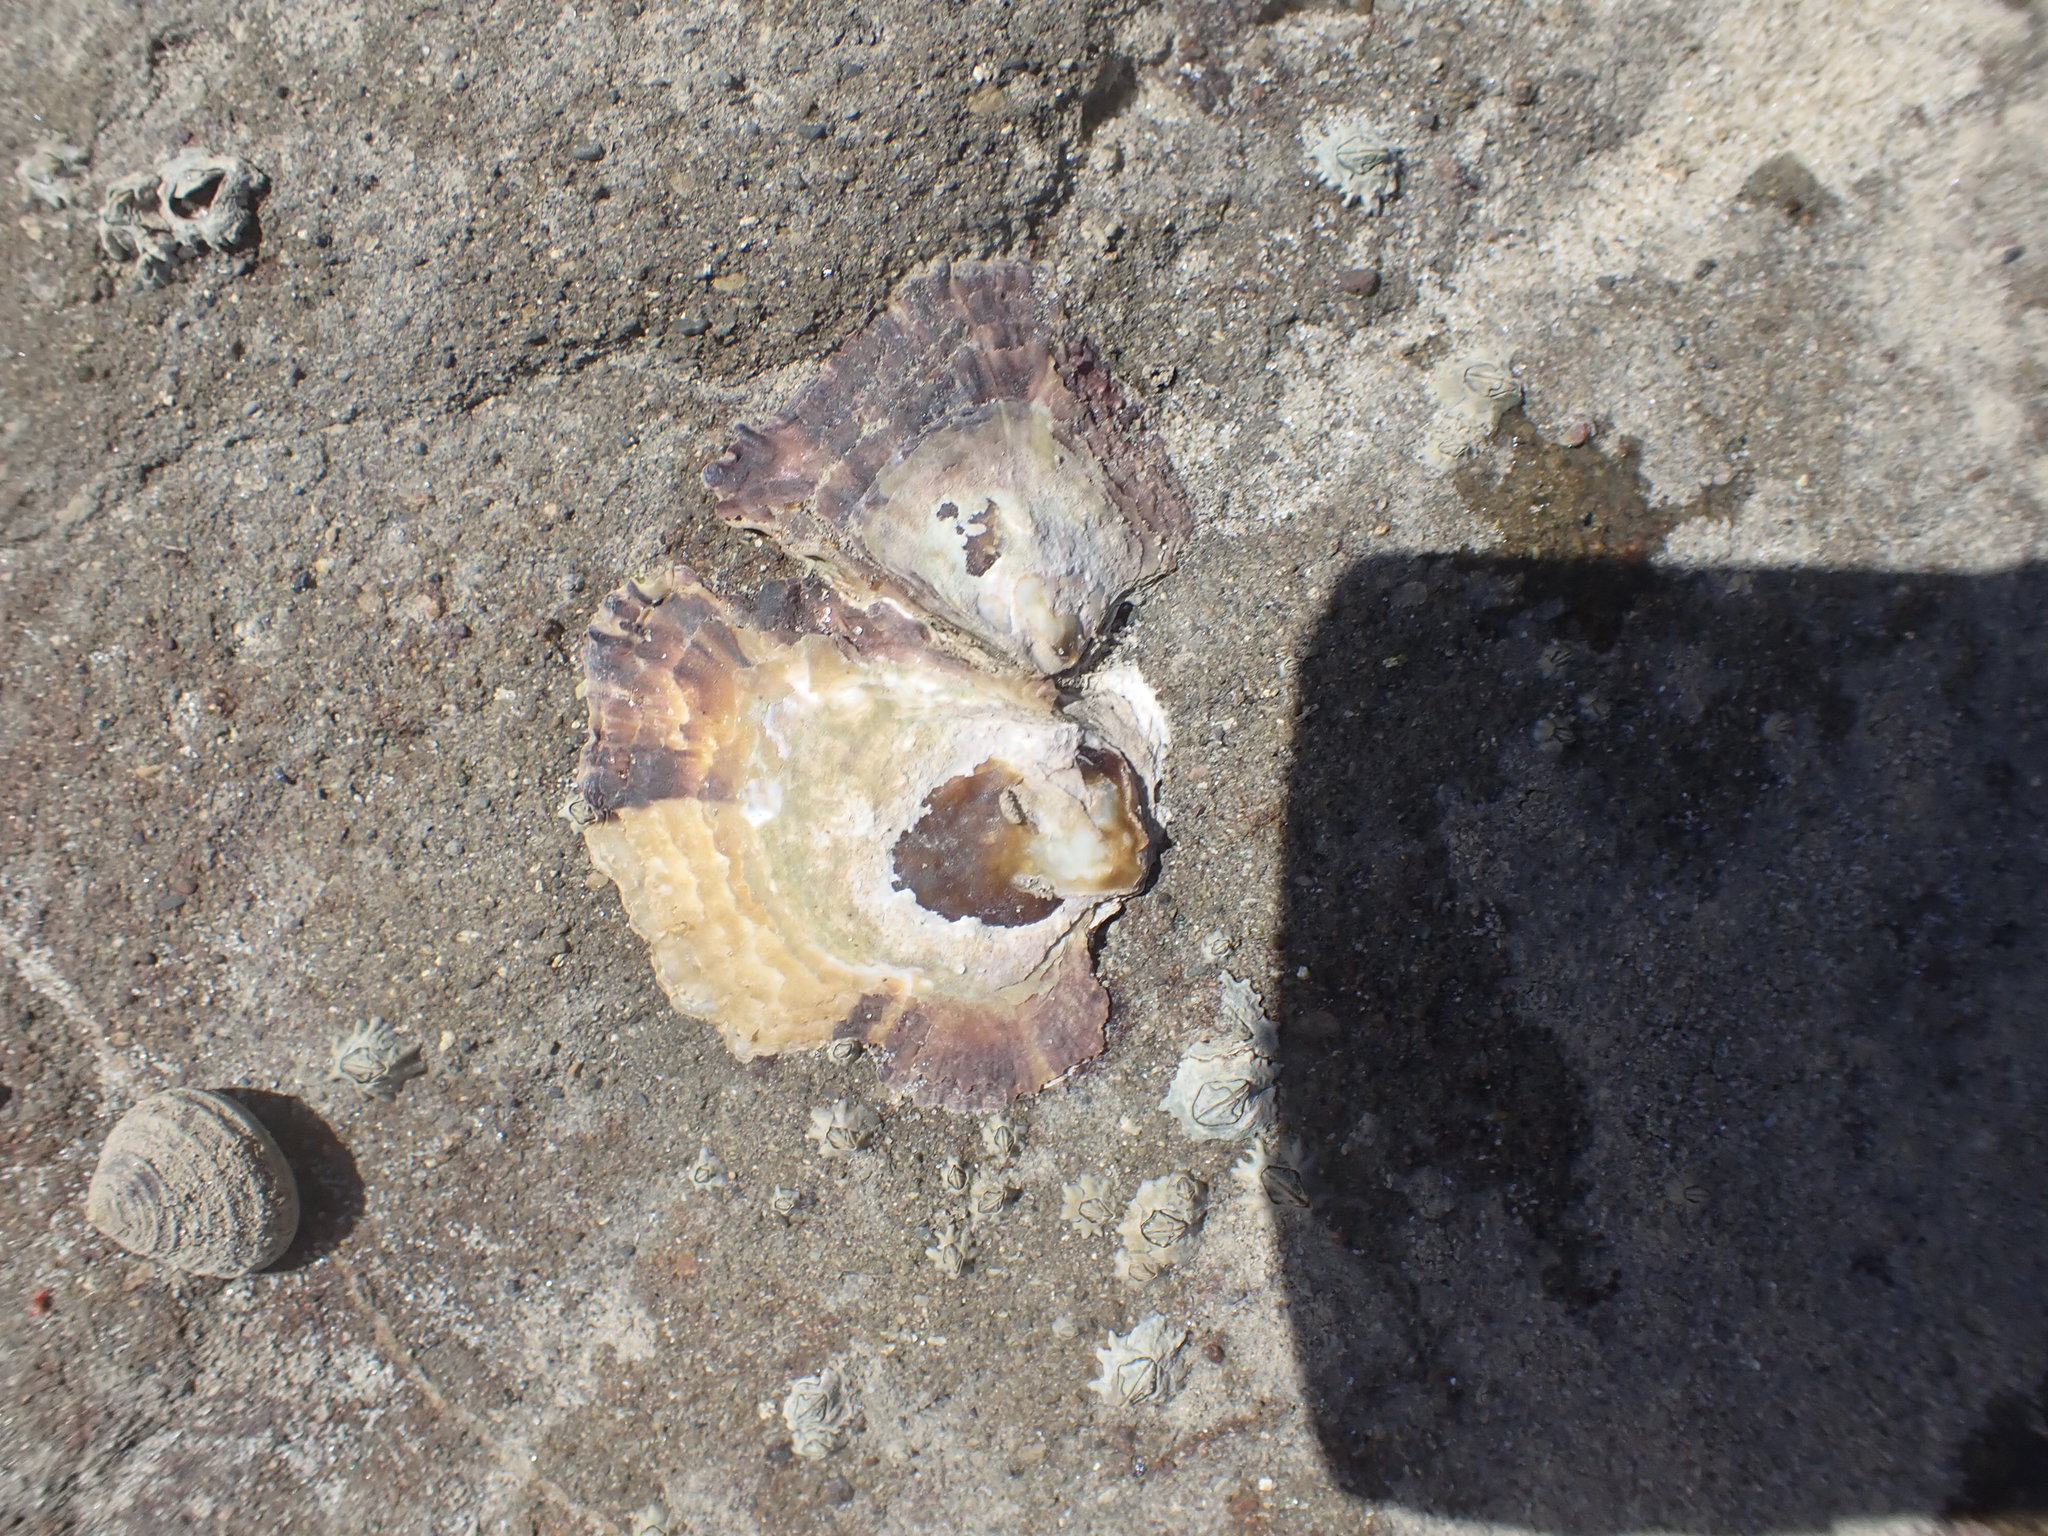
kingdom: Animalia
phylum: Mollusca
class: Bivalvia
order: Ostreida
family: Ostreidae
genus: Magallana
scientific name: Magallana gigas
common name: Pacific oyster
